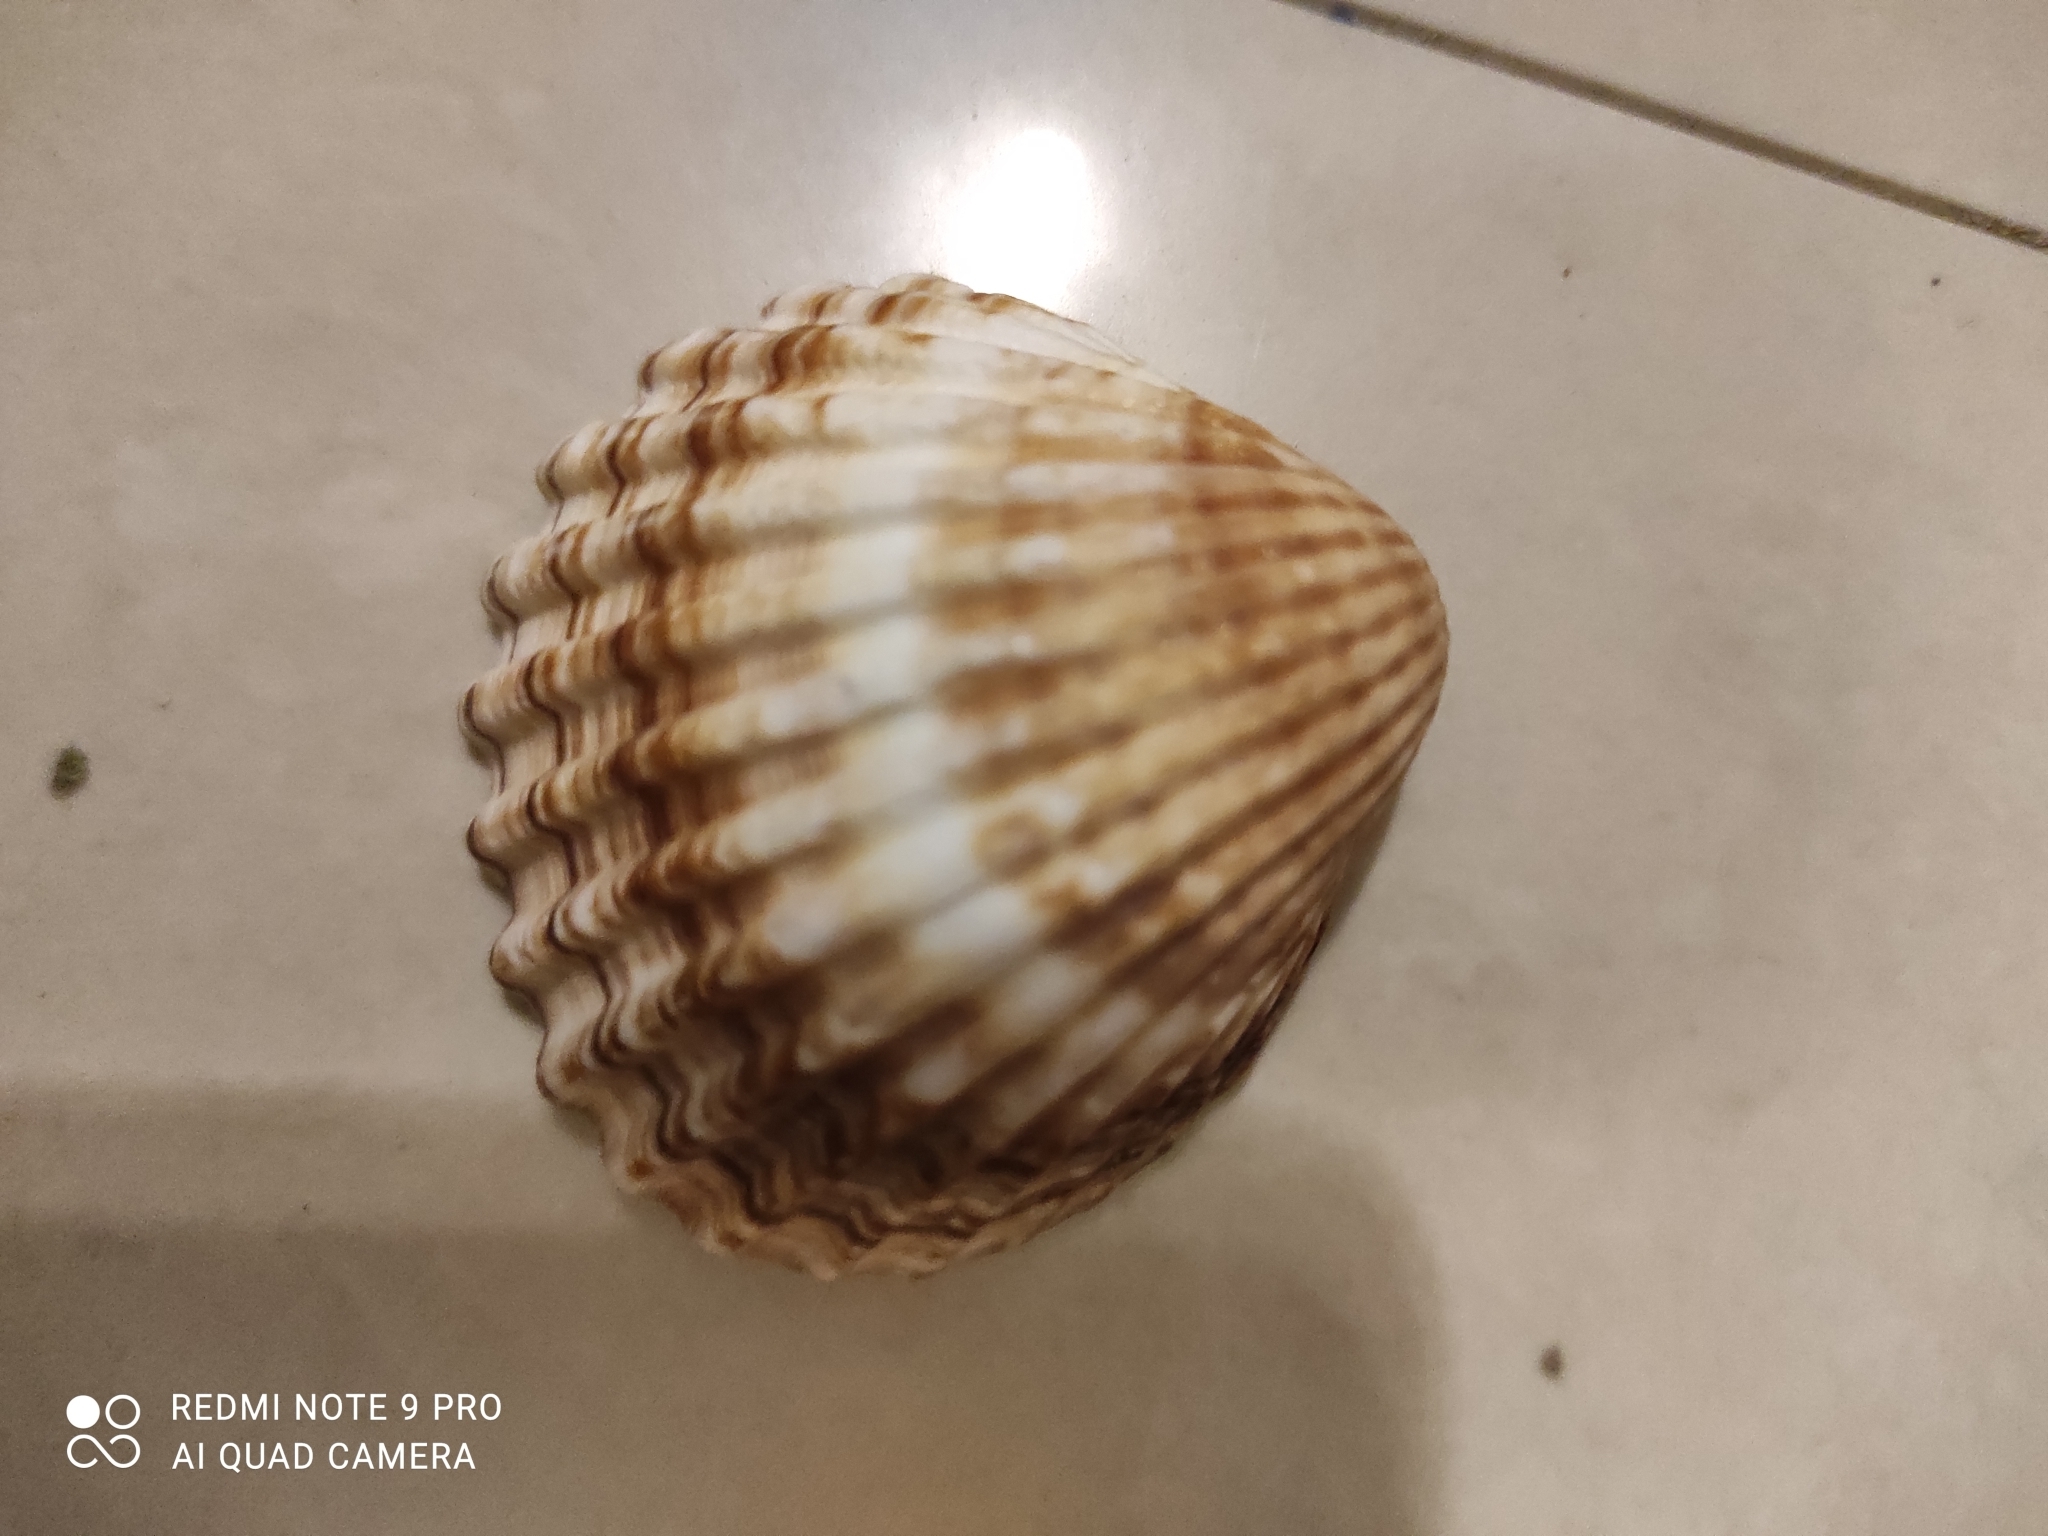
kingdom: Animalia
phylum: Mollusca
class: Bivalvia
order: Cardiida
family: Cardiidae
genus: Acanthocardia
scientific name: Acanthocardia tuberculata
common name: Rough cockle
